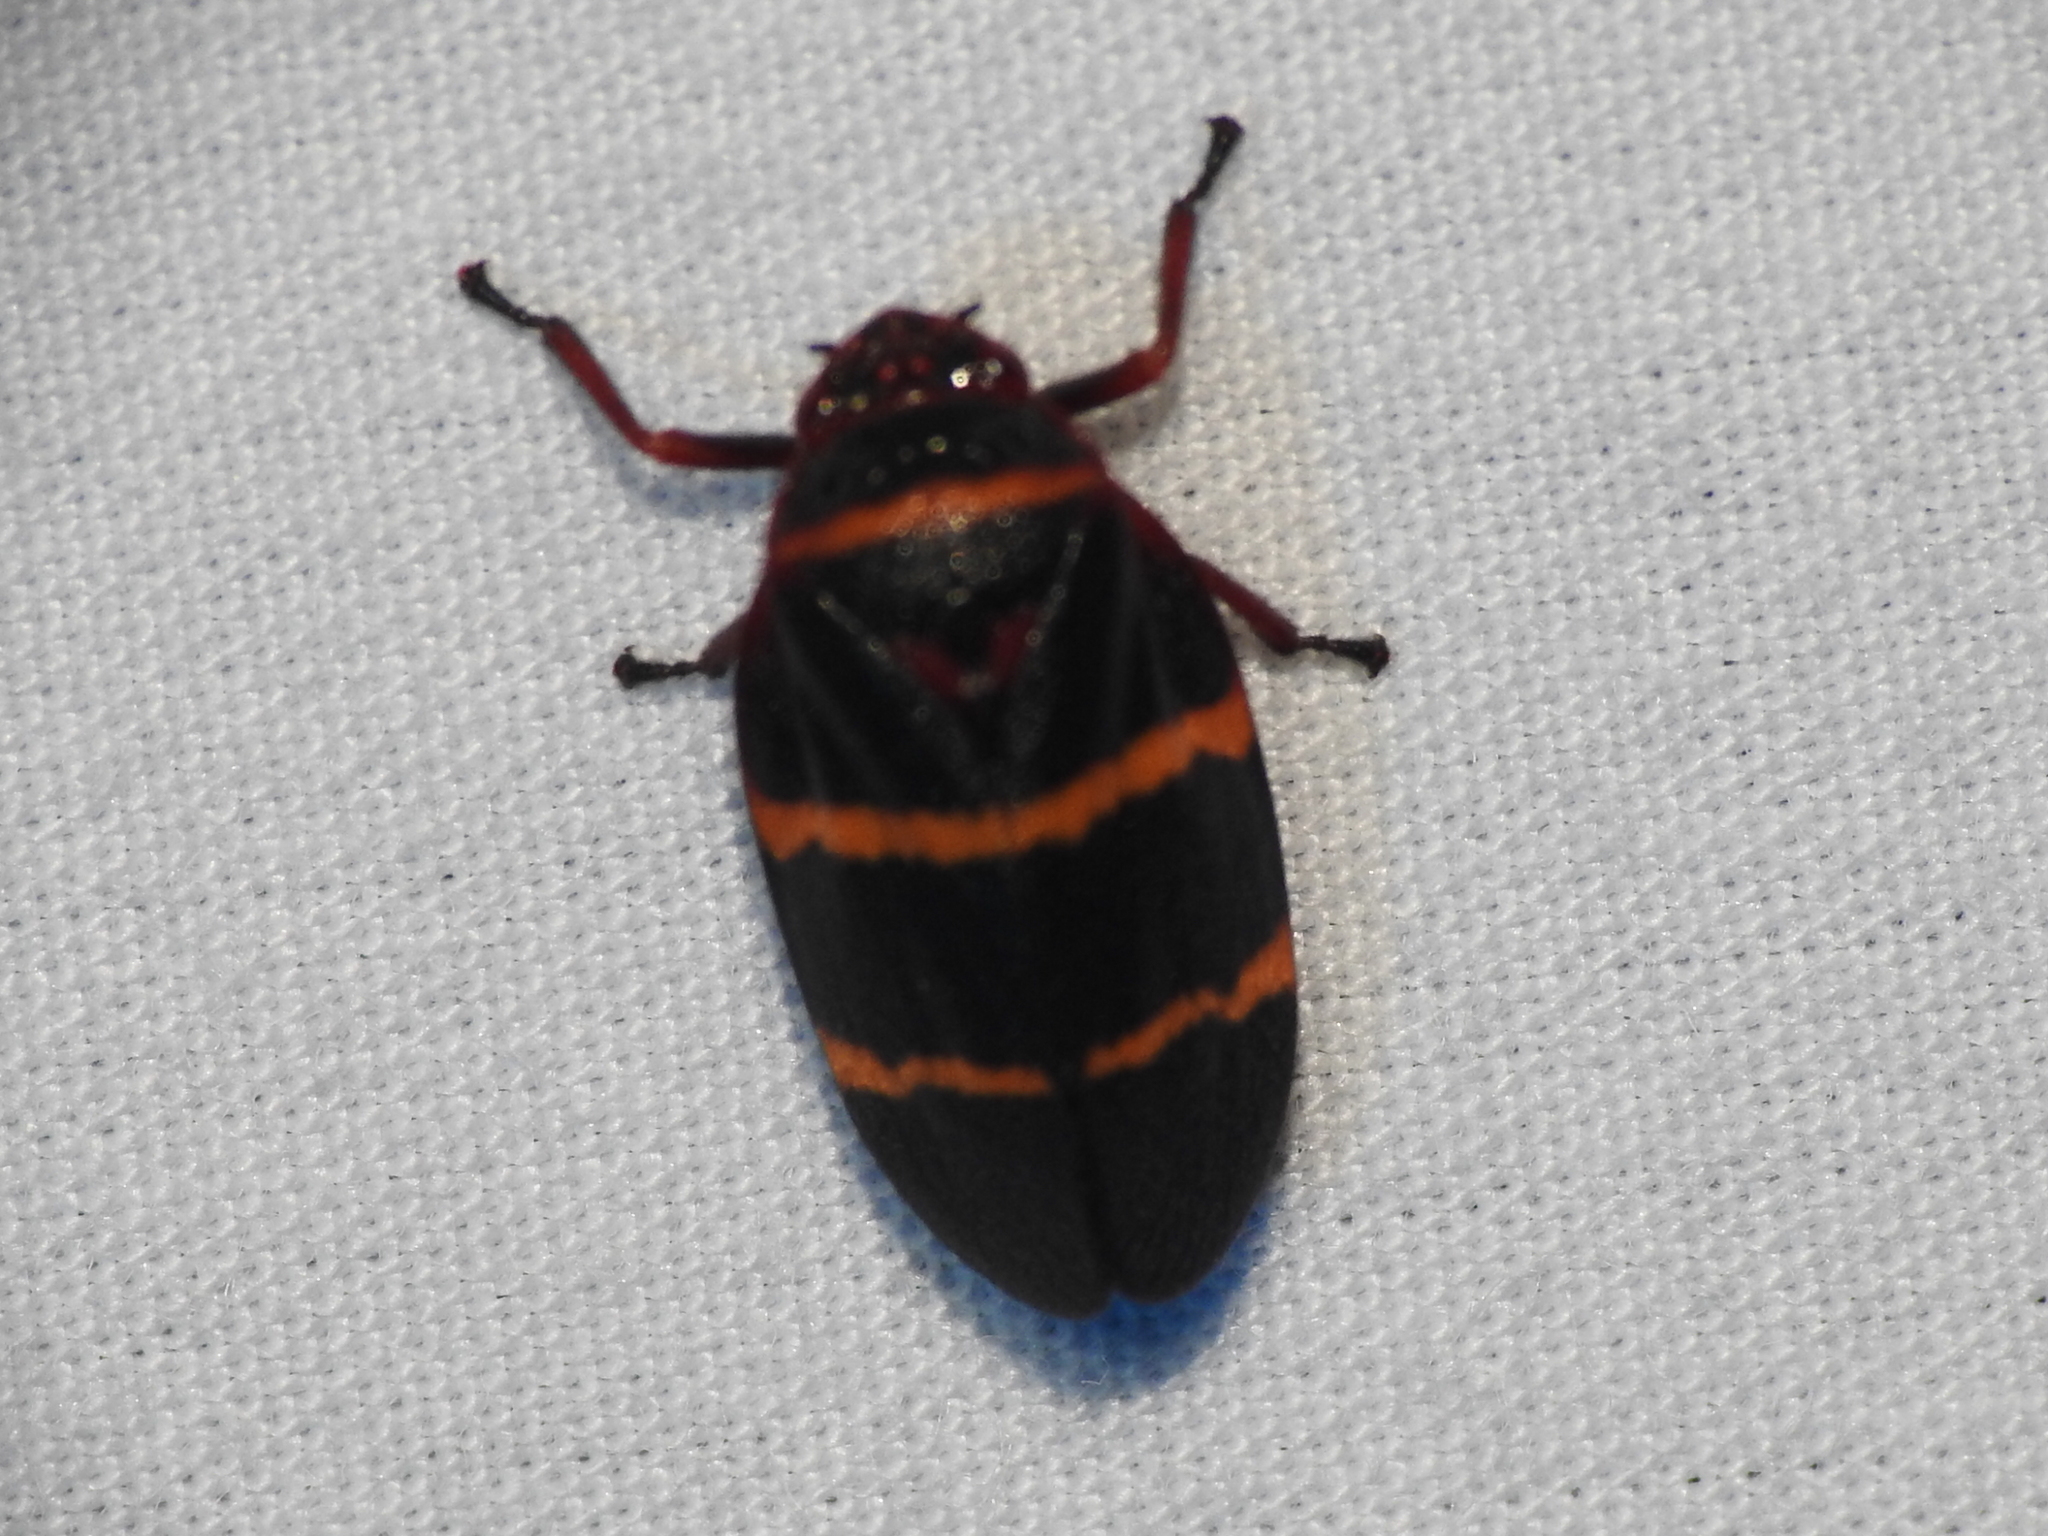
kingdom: Animalia
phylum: Arthropoda
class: Insecta
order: Hemiptera
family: Cercopidae
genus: Prosapia
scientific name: Prosapia bicincta
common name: Twolined spittlebug
